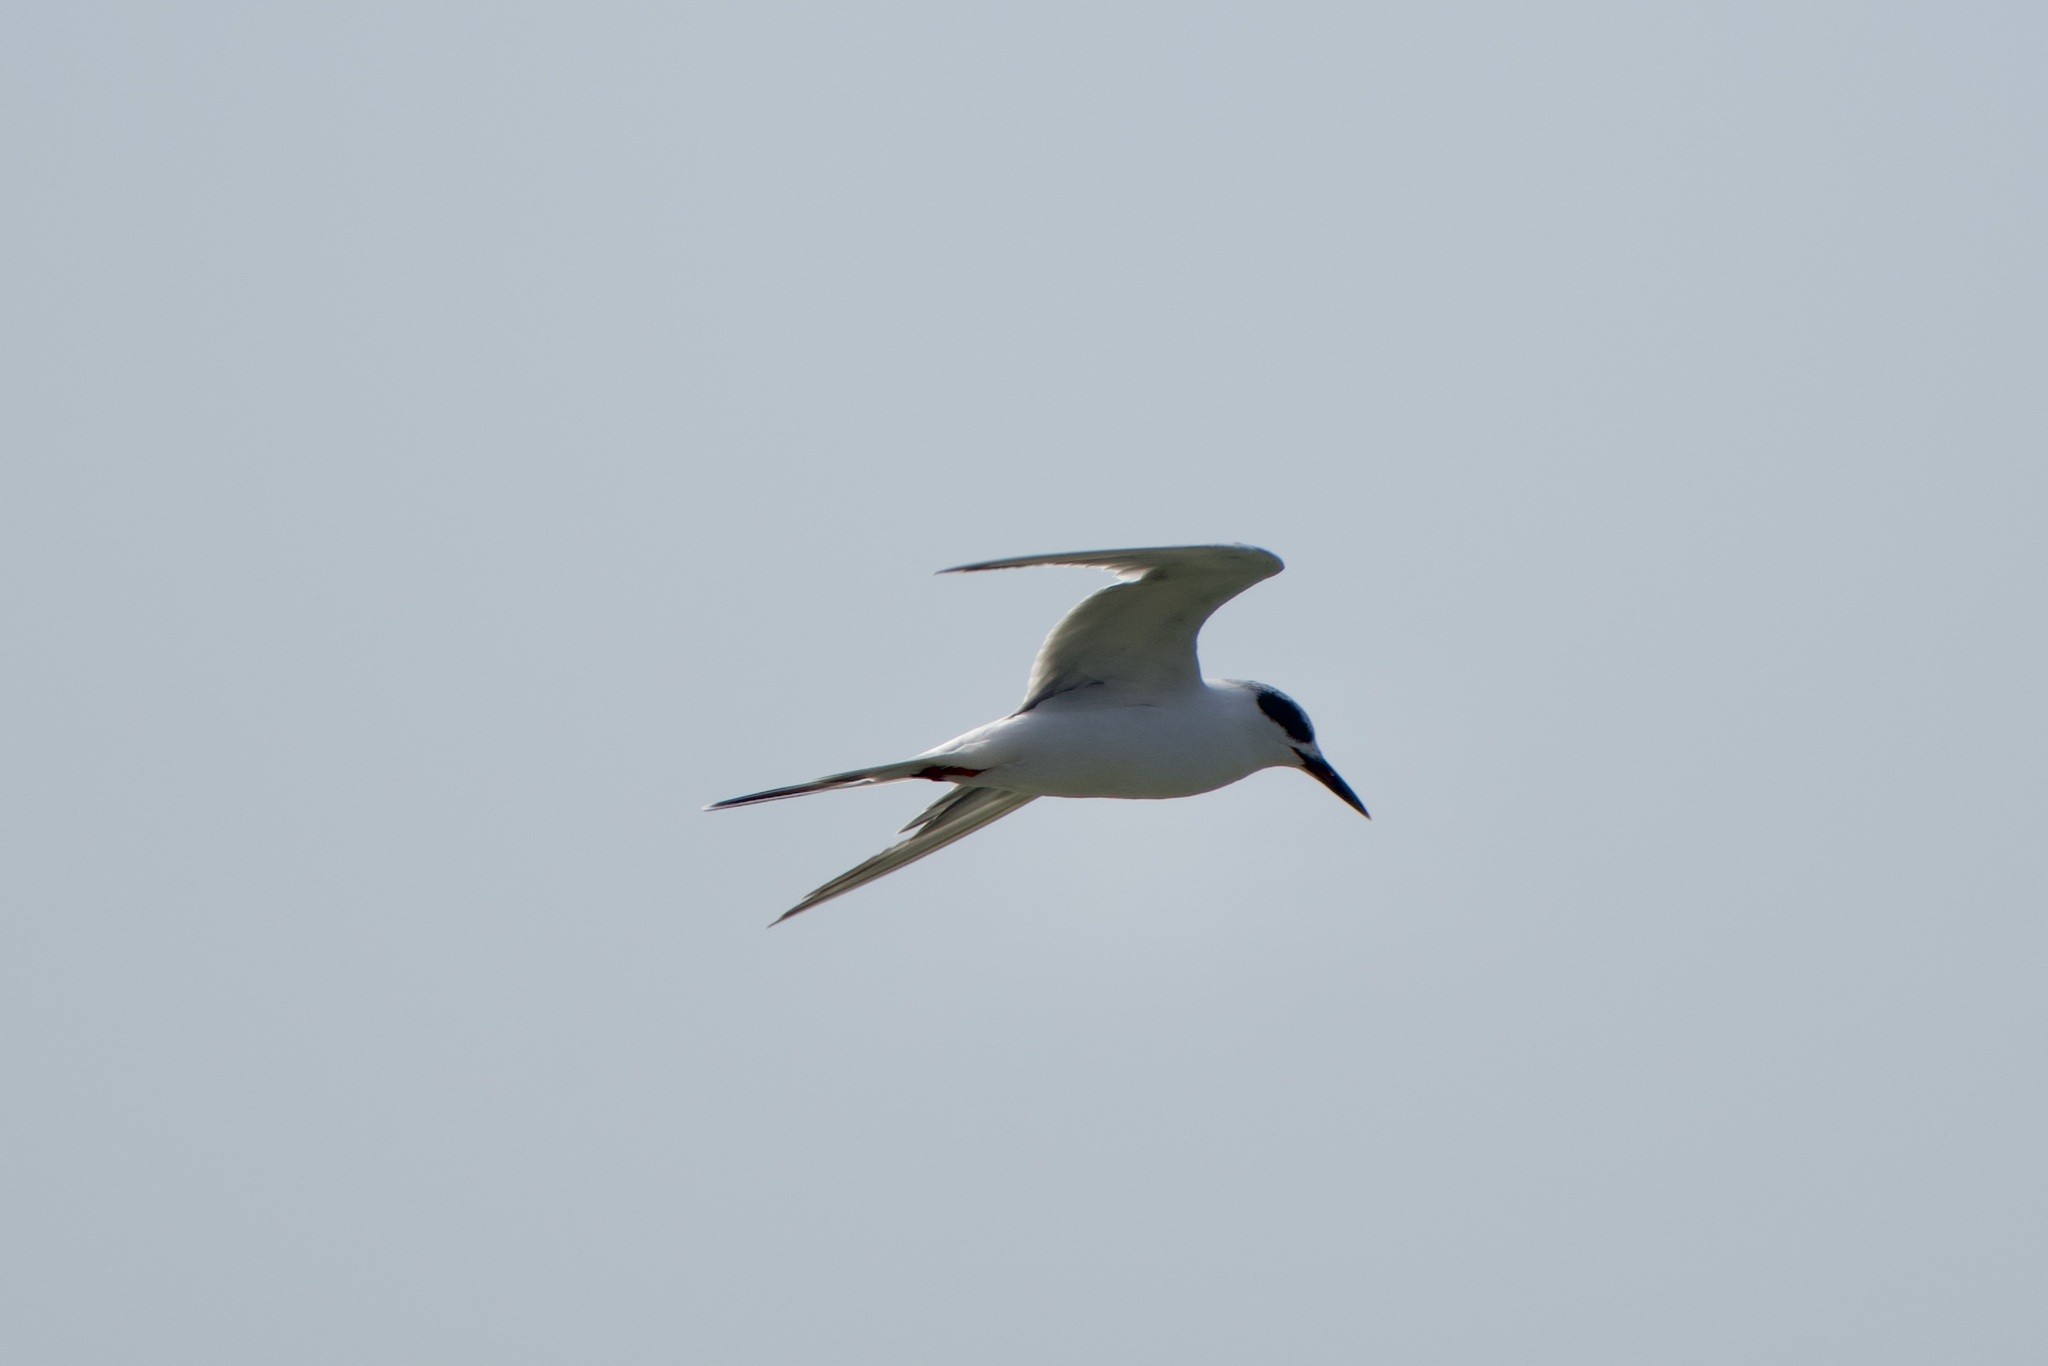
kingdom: Animalia
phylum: Chordata
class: Aves
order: Charadriiformes
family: Laridae
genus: Sterna
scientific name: Sterna forsteri
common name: Forster's tern
